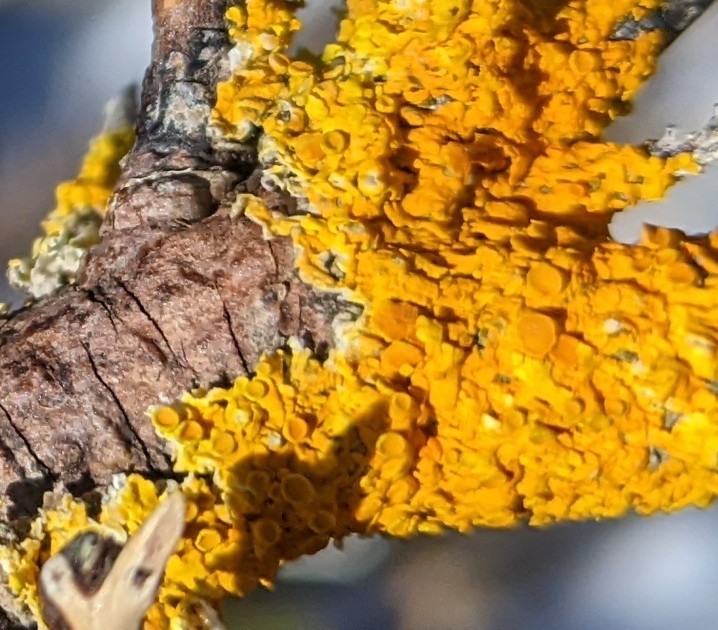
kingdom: Fungi
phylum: Ascomycota
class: Lecanoromycetes
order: Teloschistales
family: Teloschistaceae
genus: Xanthoria
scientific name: Xanthoria parietina
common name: Common orange lichen
